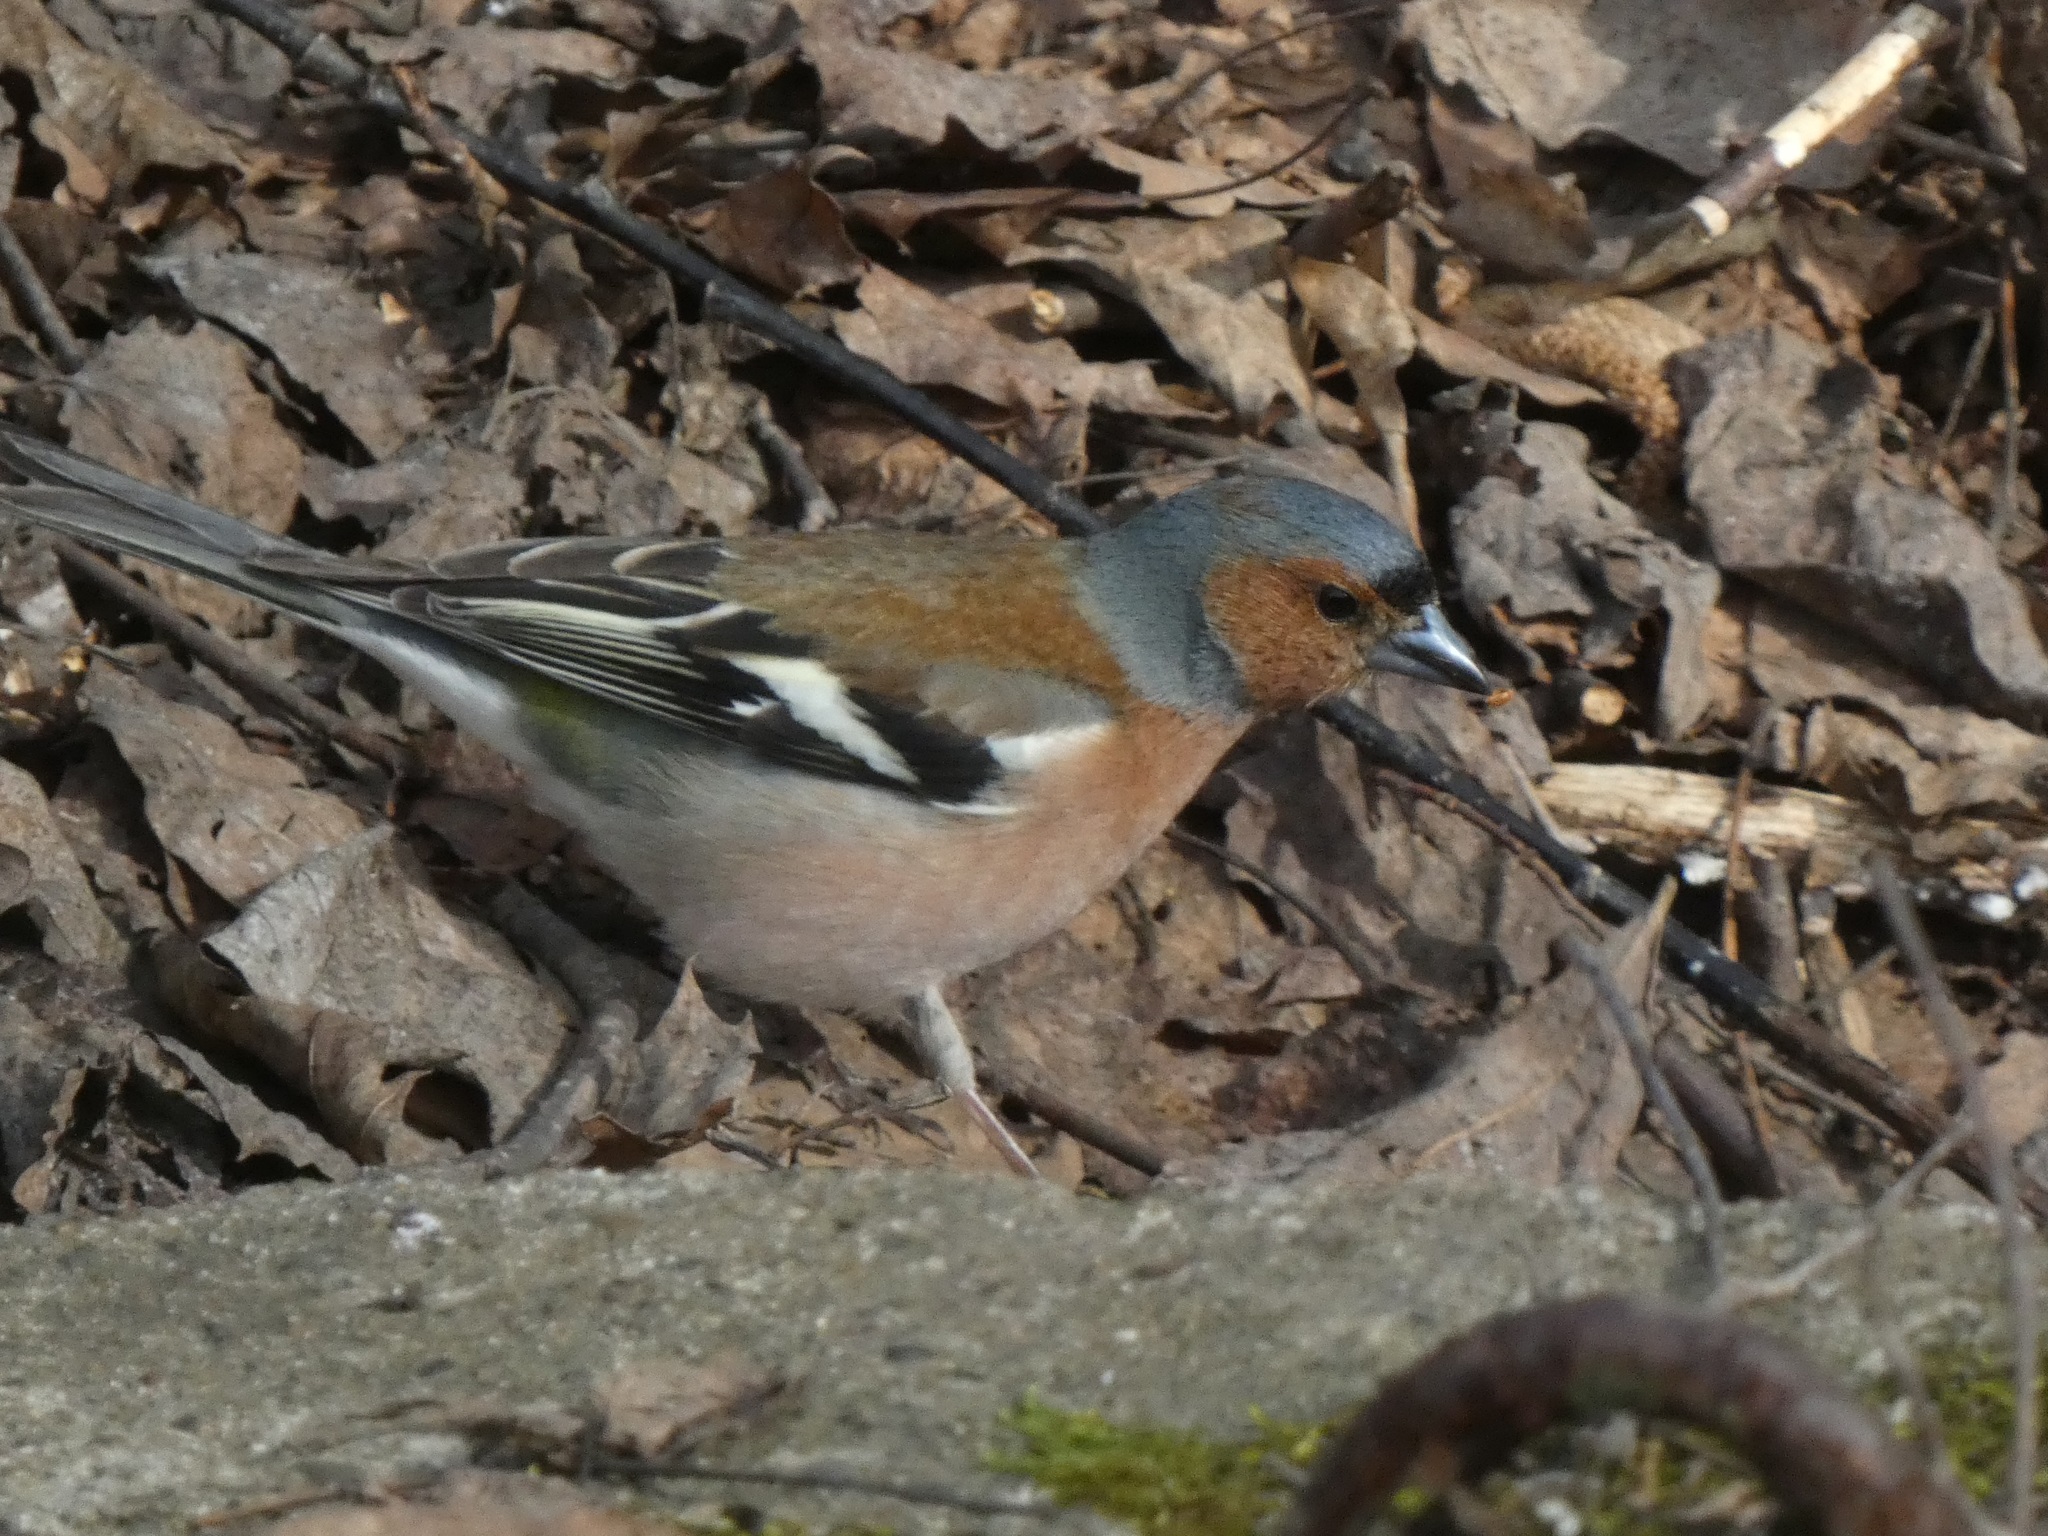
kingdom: Animalia
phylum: Chordata
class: Aves
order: Passeriformes
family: Fringillidae
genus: Fringilla
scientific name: Fringilla coelebs
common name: Common chaffinch
